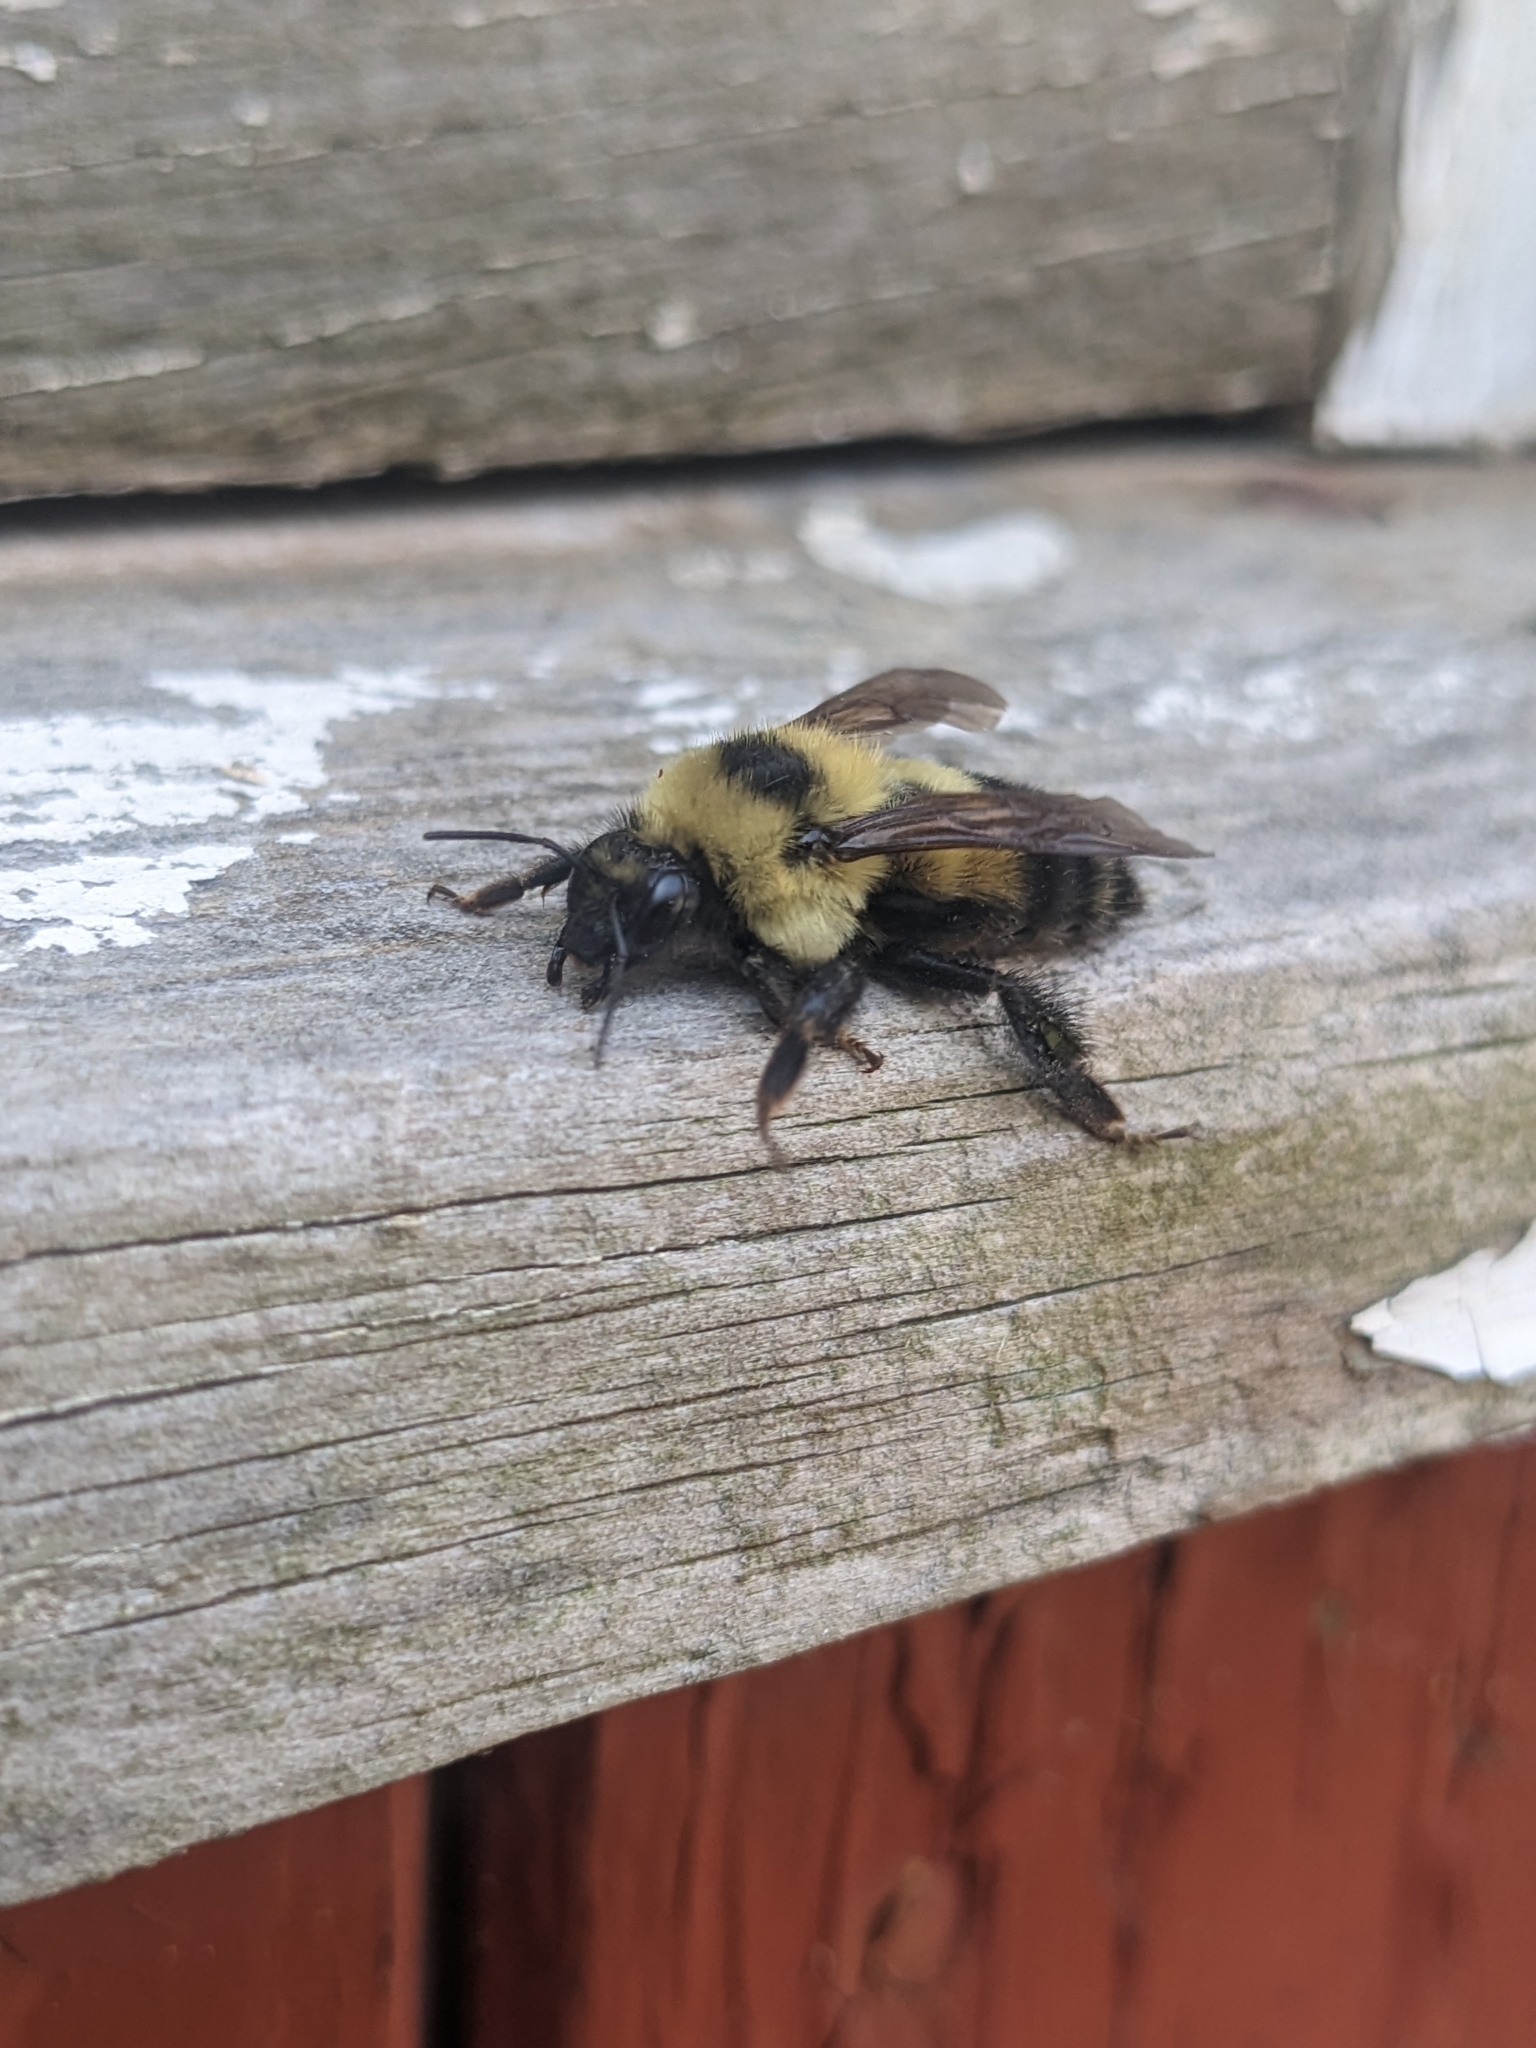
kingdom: Animalia
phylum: Arthropoda
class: Insecta
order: Hymenoptera
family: Apidae
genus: Bombus
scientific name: Bombus rufocinctus
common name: Red-belted bumble bee
